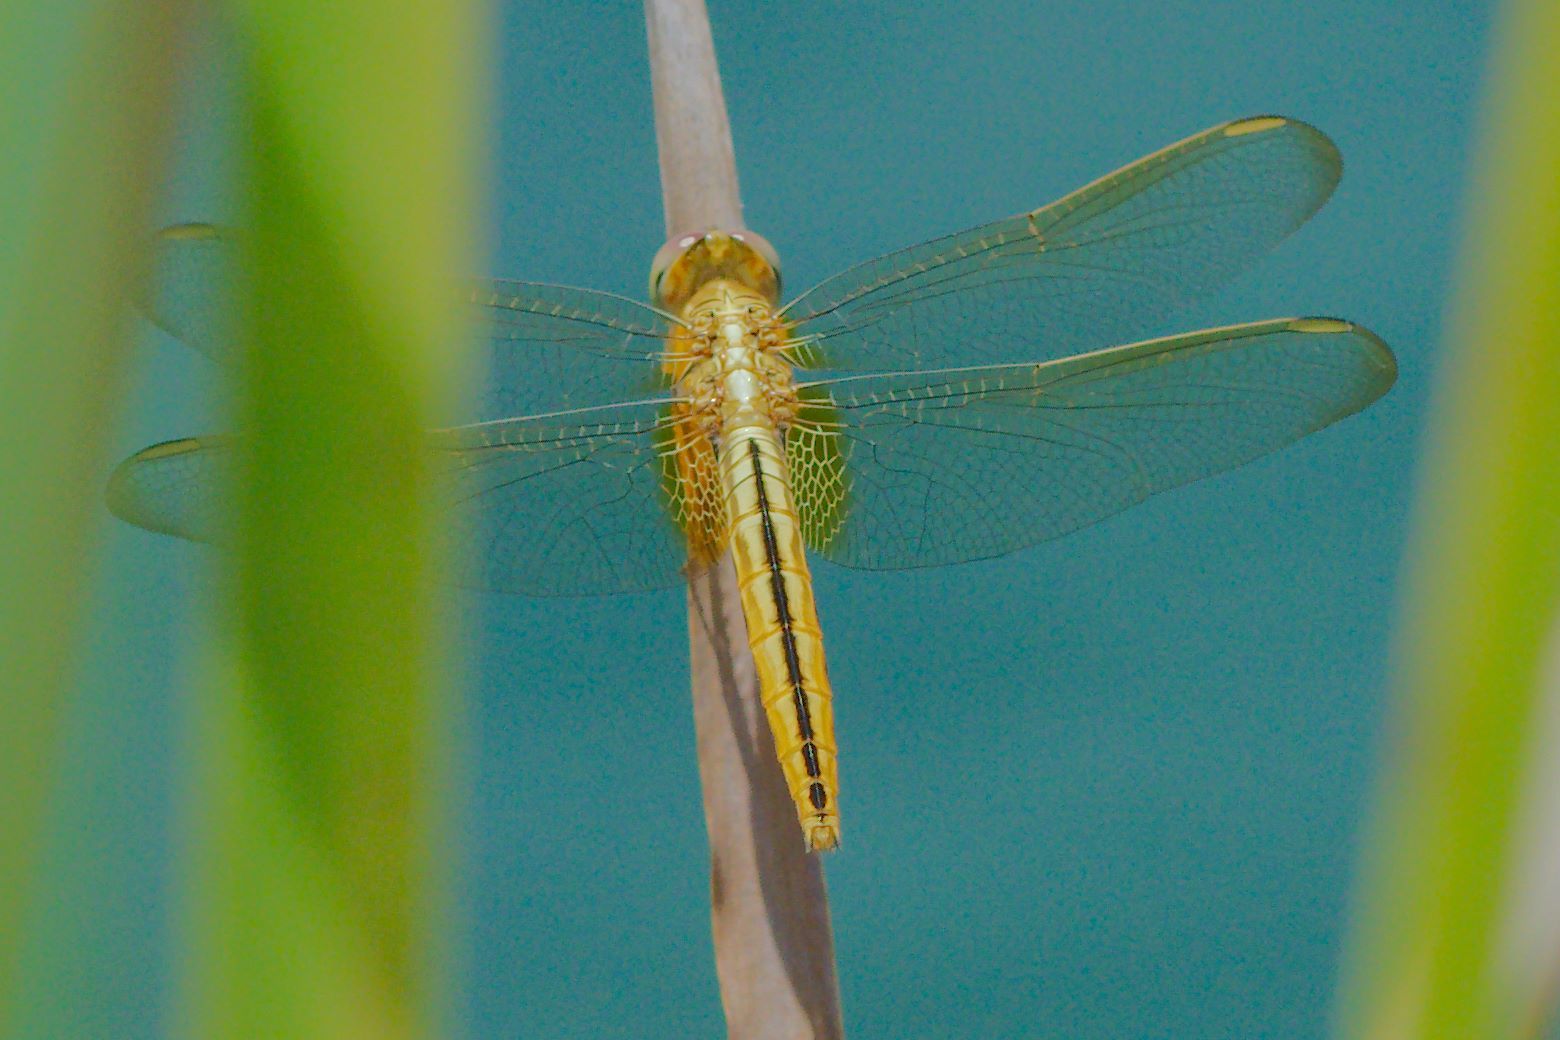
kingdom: Animalia
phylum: Arthropoda
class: Insecta
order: Odonata
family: Libellulidae
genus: Crocothemis
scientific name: Crocothemis servilia
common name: Scarlet skimmer
